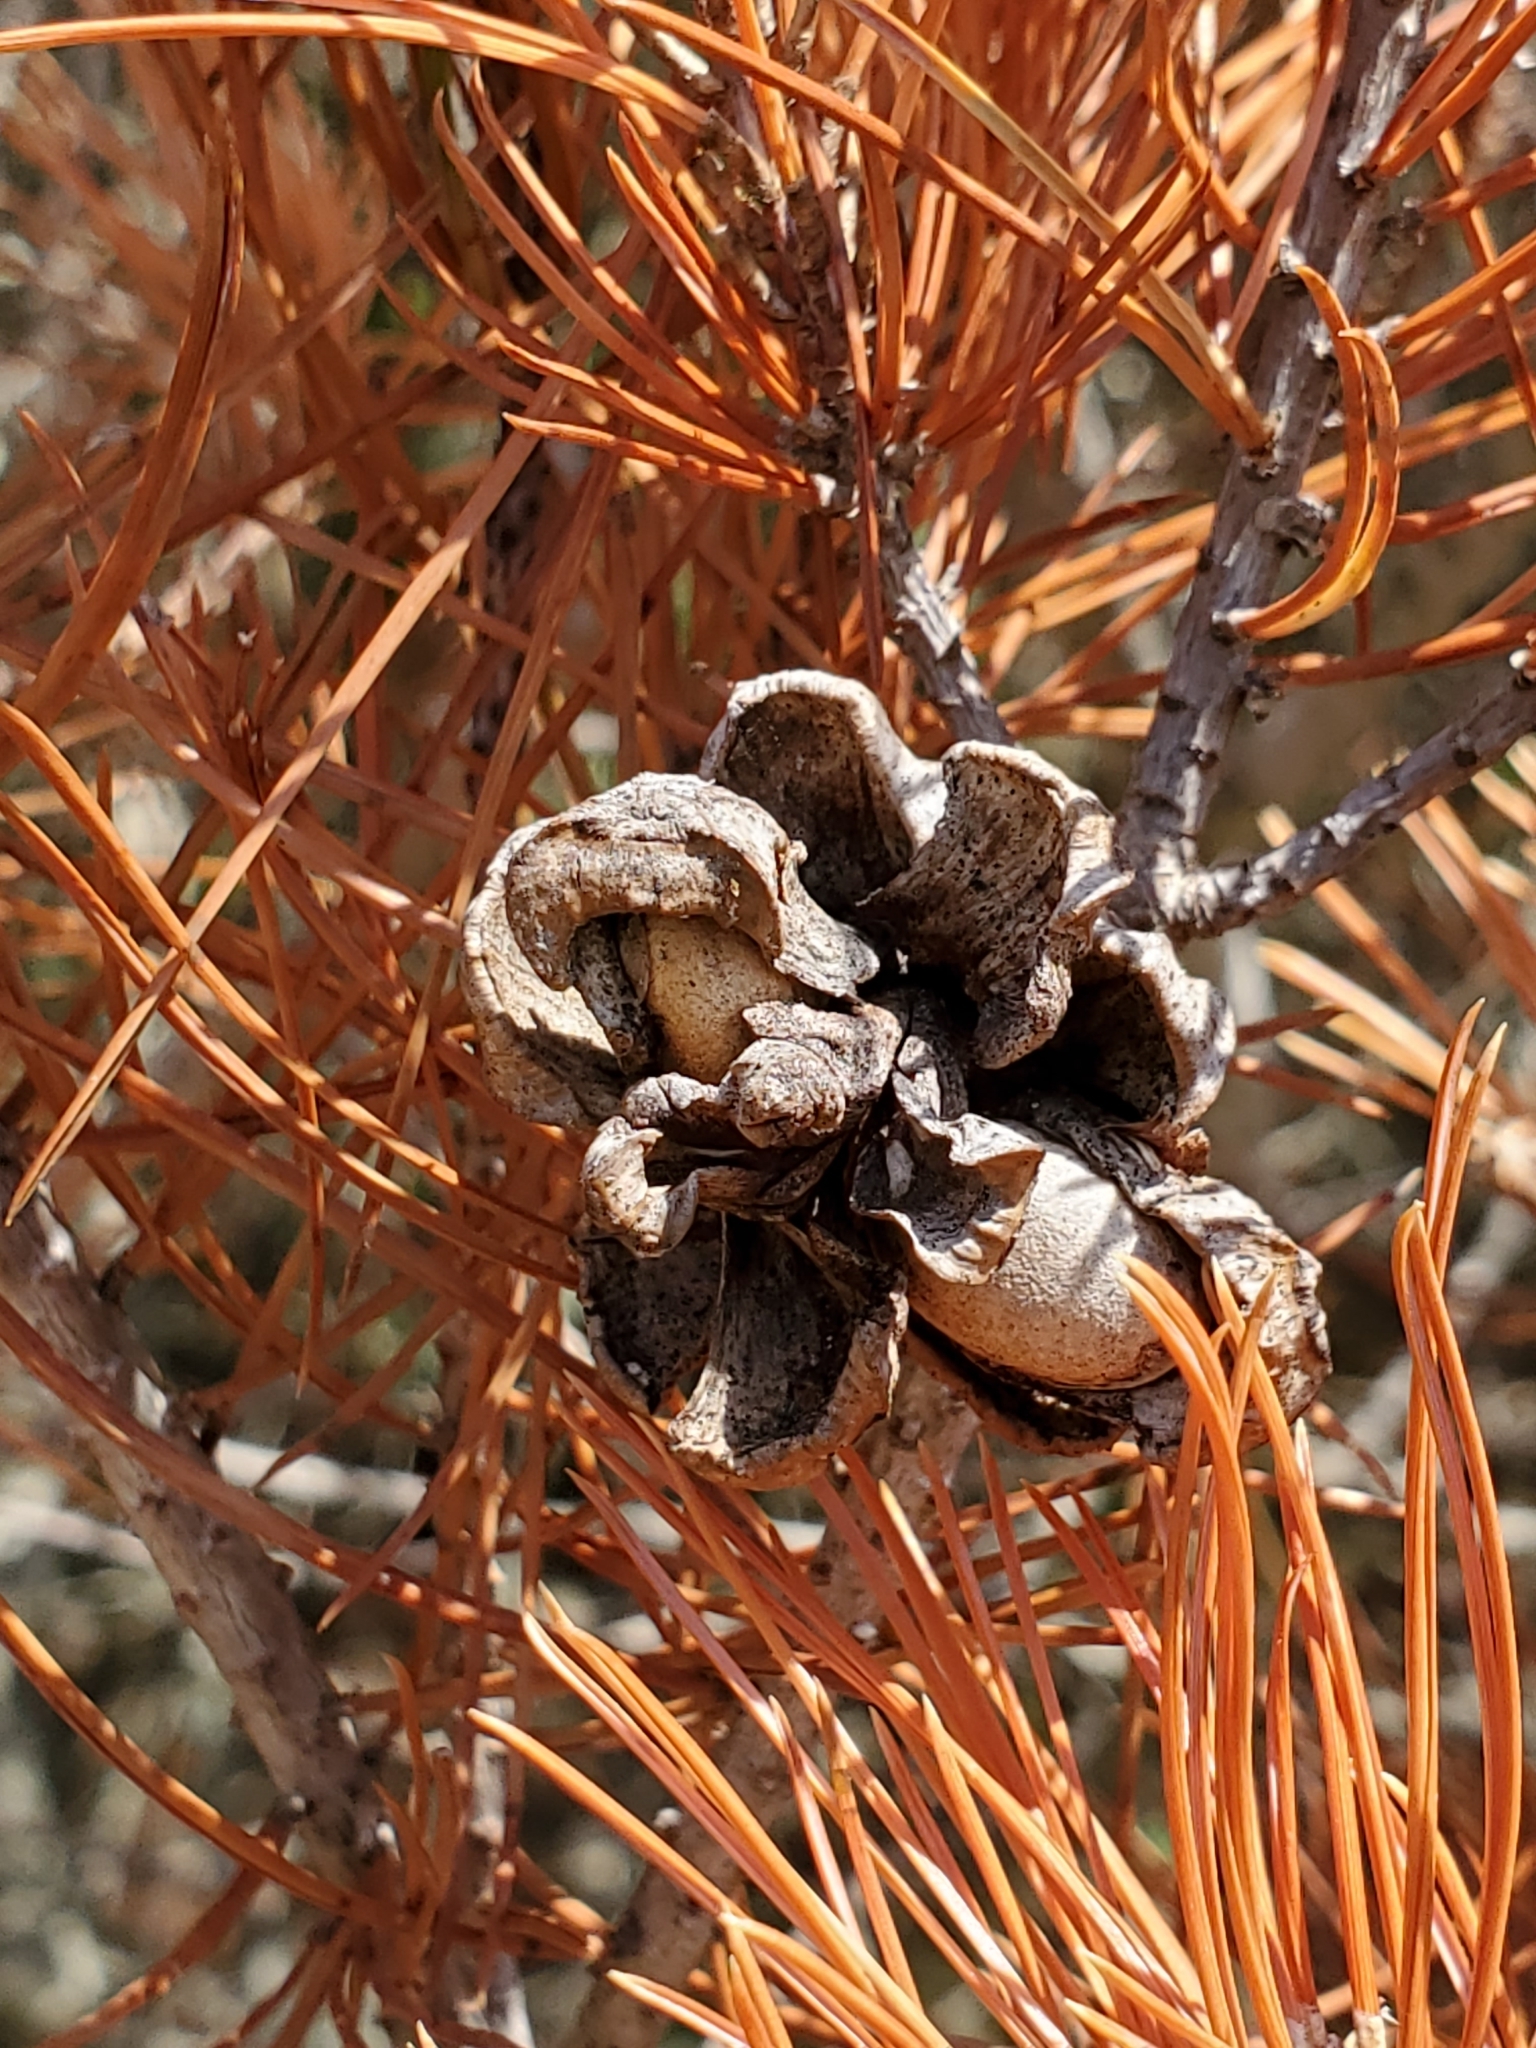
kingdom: Plantae
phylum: Tracheophyta
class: Pinopsida
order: Pinales
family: Pinaceae
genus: Pinus
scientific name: Pinus remota
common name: Nut pine
